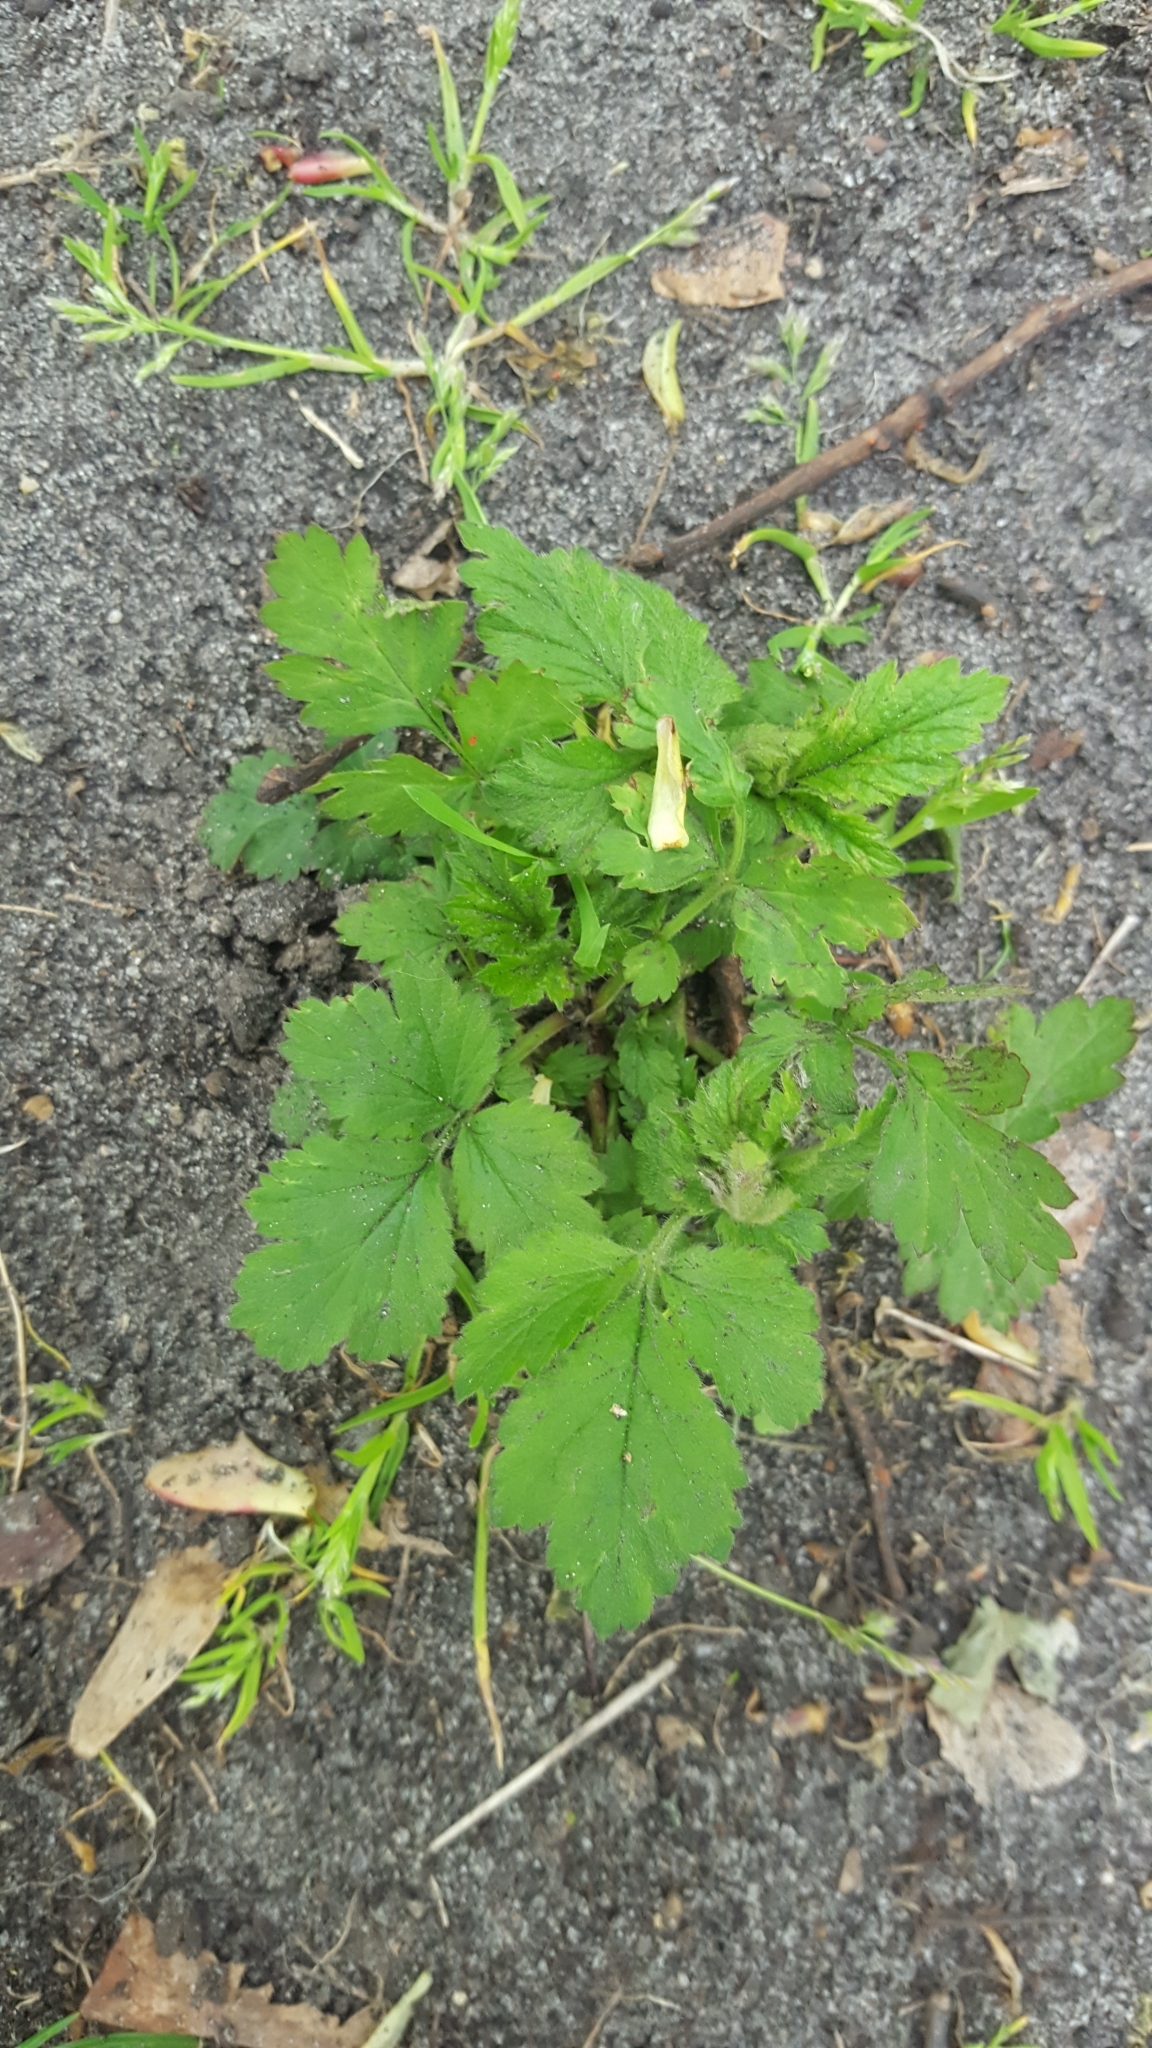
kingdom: Plantae
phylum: Tracheophyta
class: Magnoliopsida
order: Rosales
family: Rosaceae
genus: Geum
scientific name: Geum urbanum
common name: Wood avens
